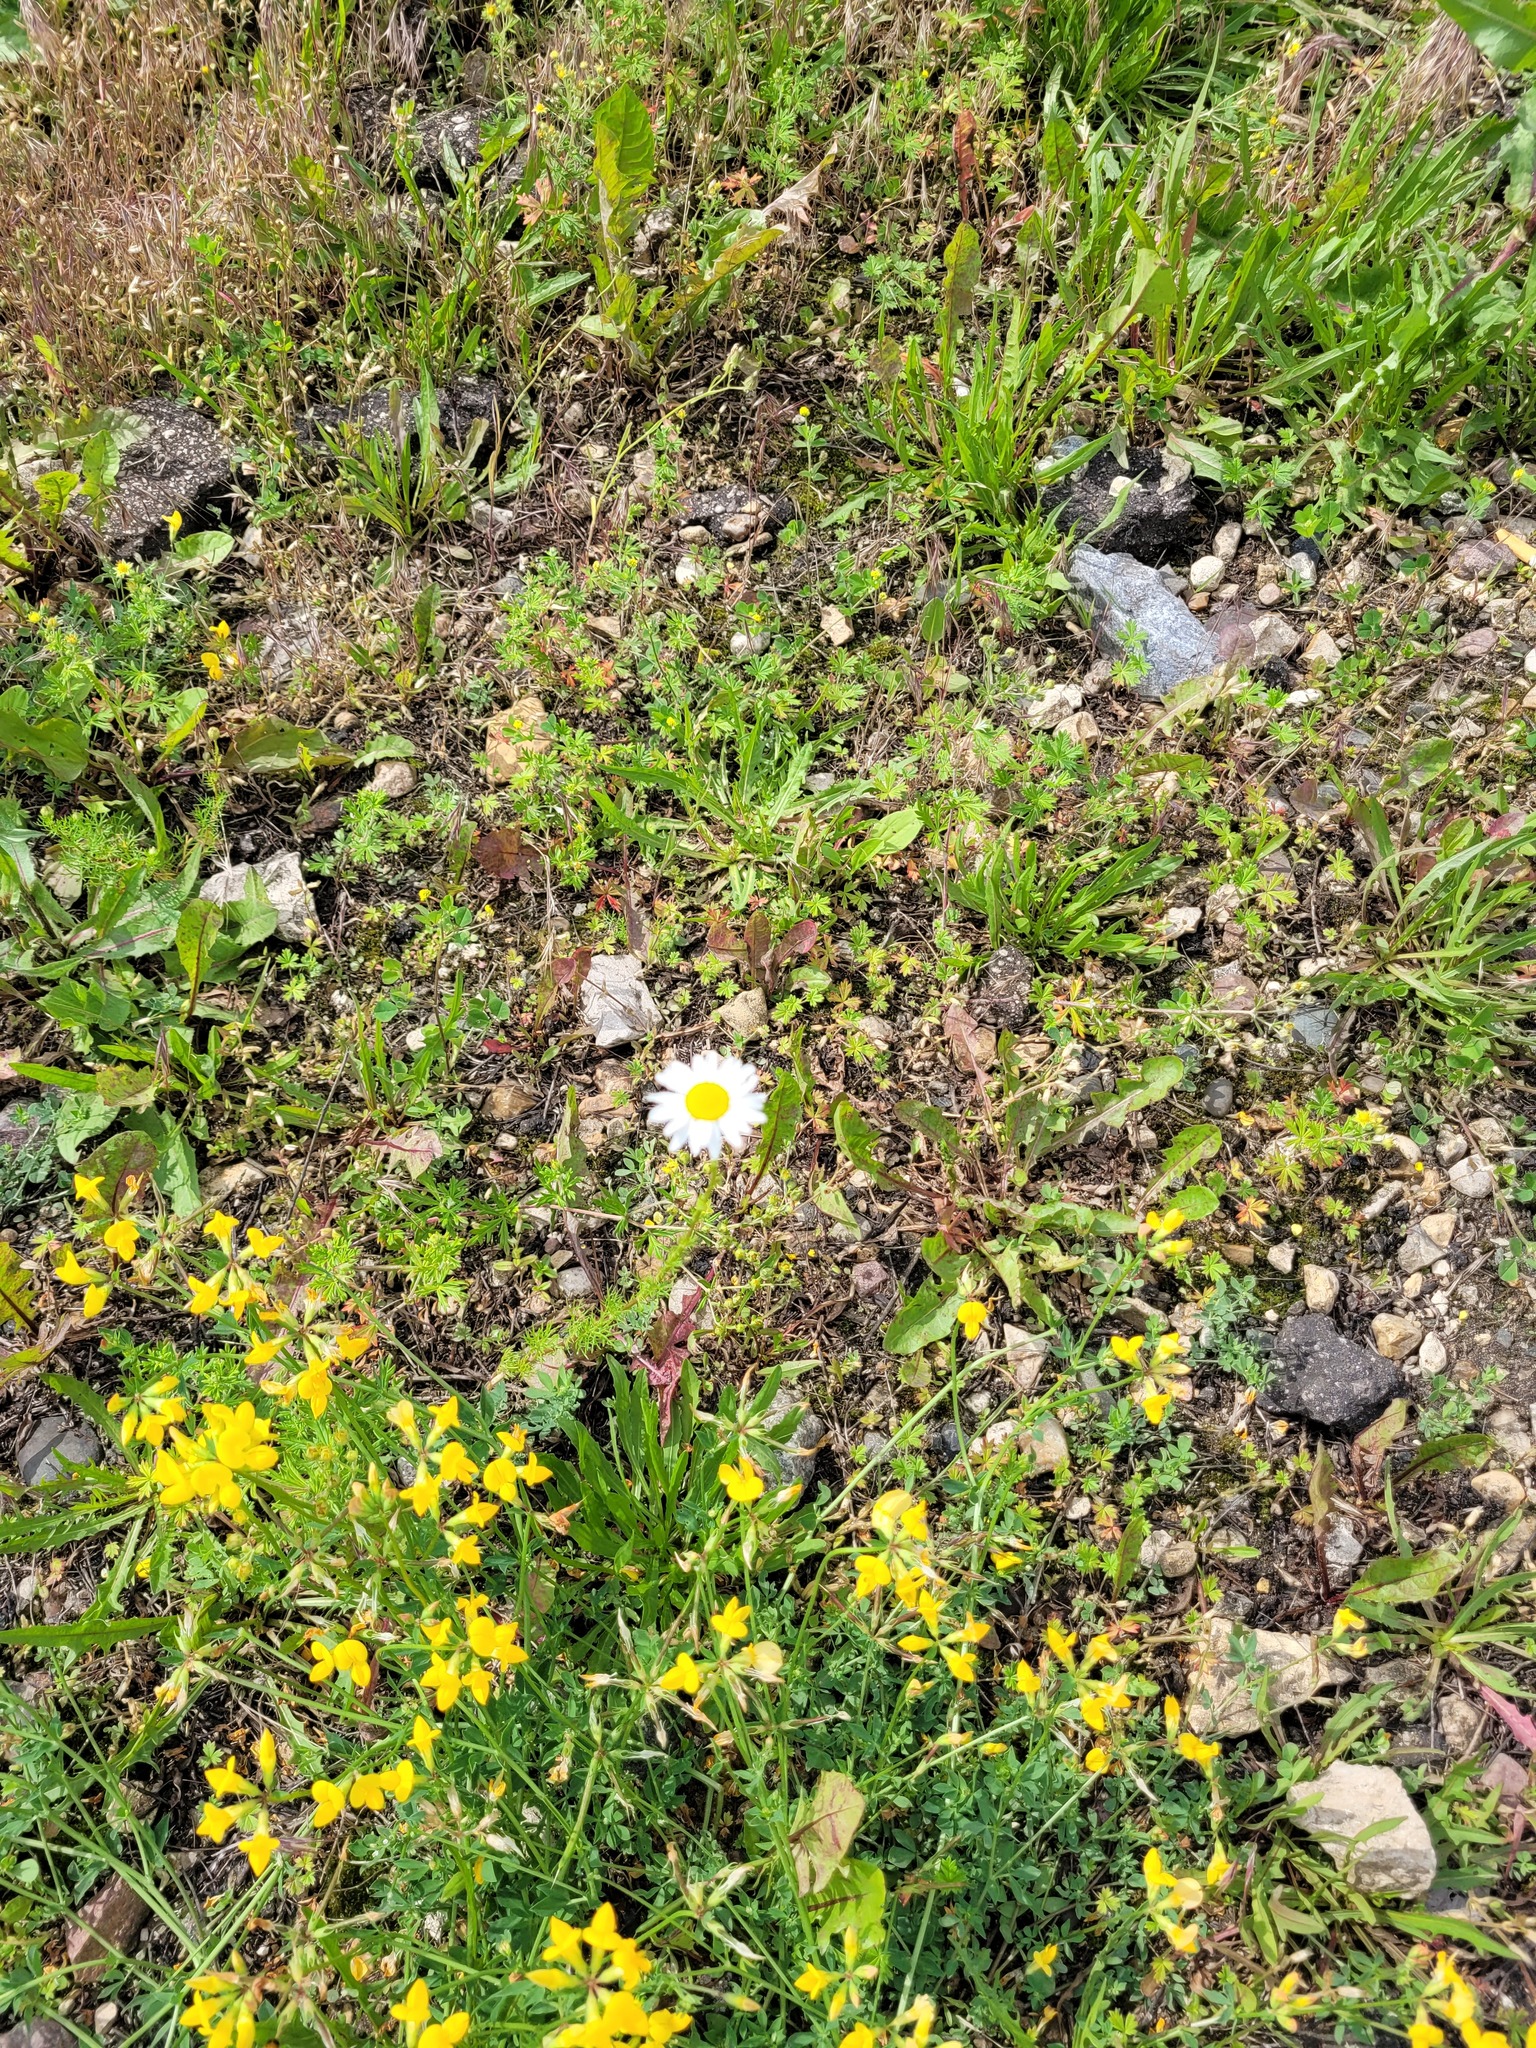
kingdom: Plantae
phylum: Tracheophyta
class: Magnoliopsida
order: Asterales
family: Asteraceae
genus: Tripleurospermum
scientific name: Tripleurospermum inodorum
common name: Scentless mayweed
